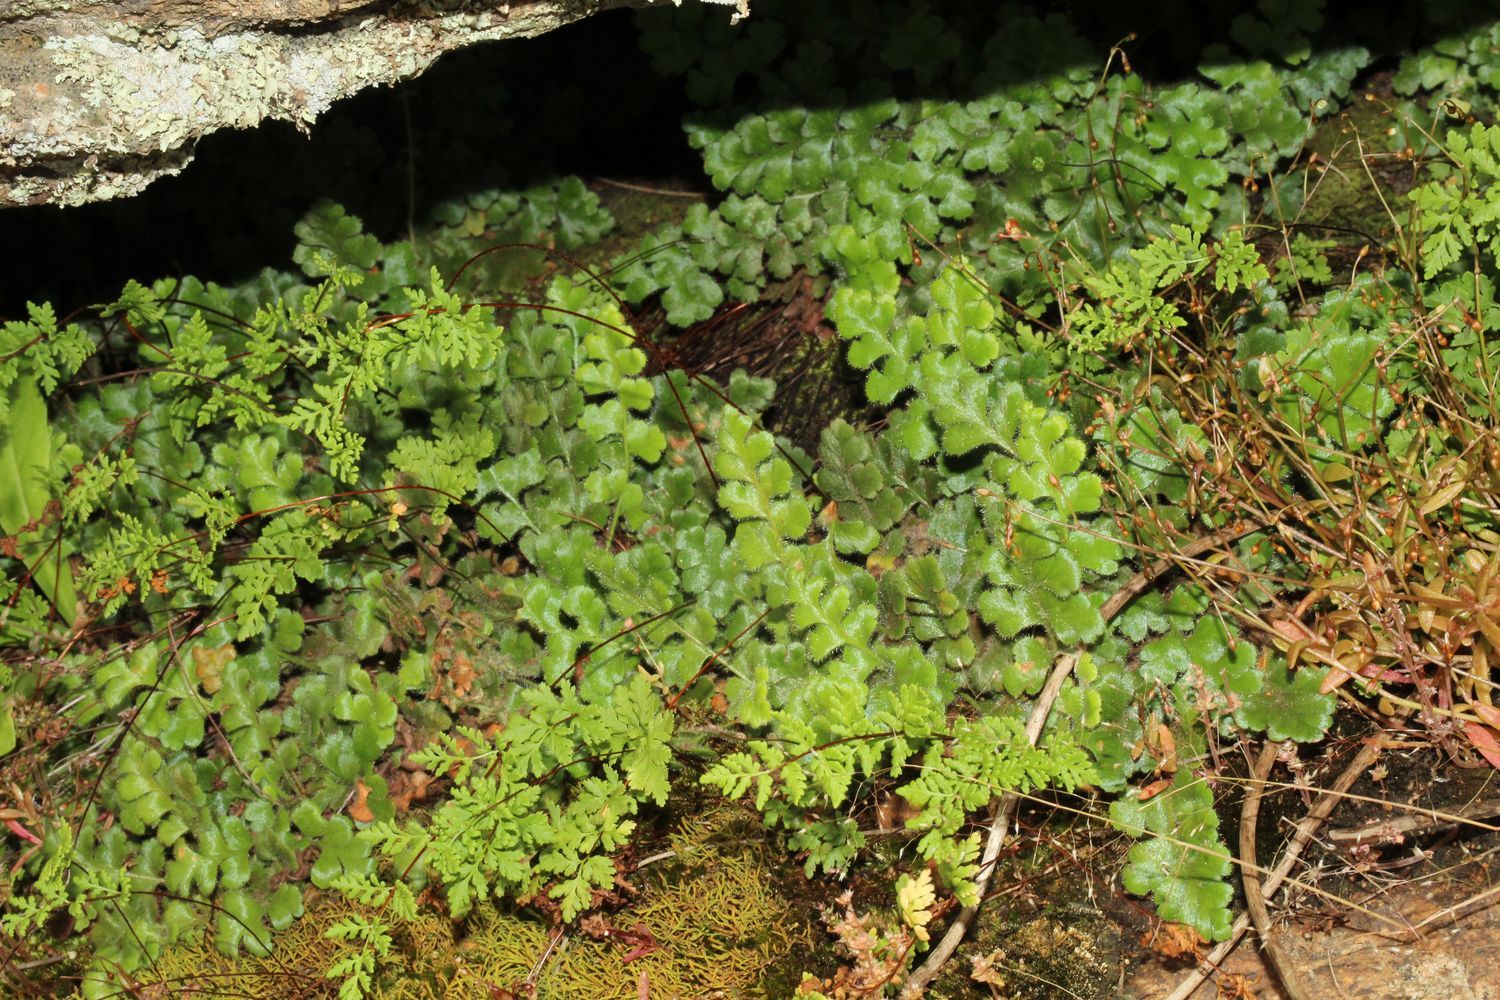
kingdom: Plantae
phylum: Tracheophyta
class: Polypodiopsida
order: Polypodiales
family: Aspleniaceae
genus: Asplenium
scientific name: Asplenium subglandulosum
